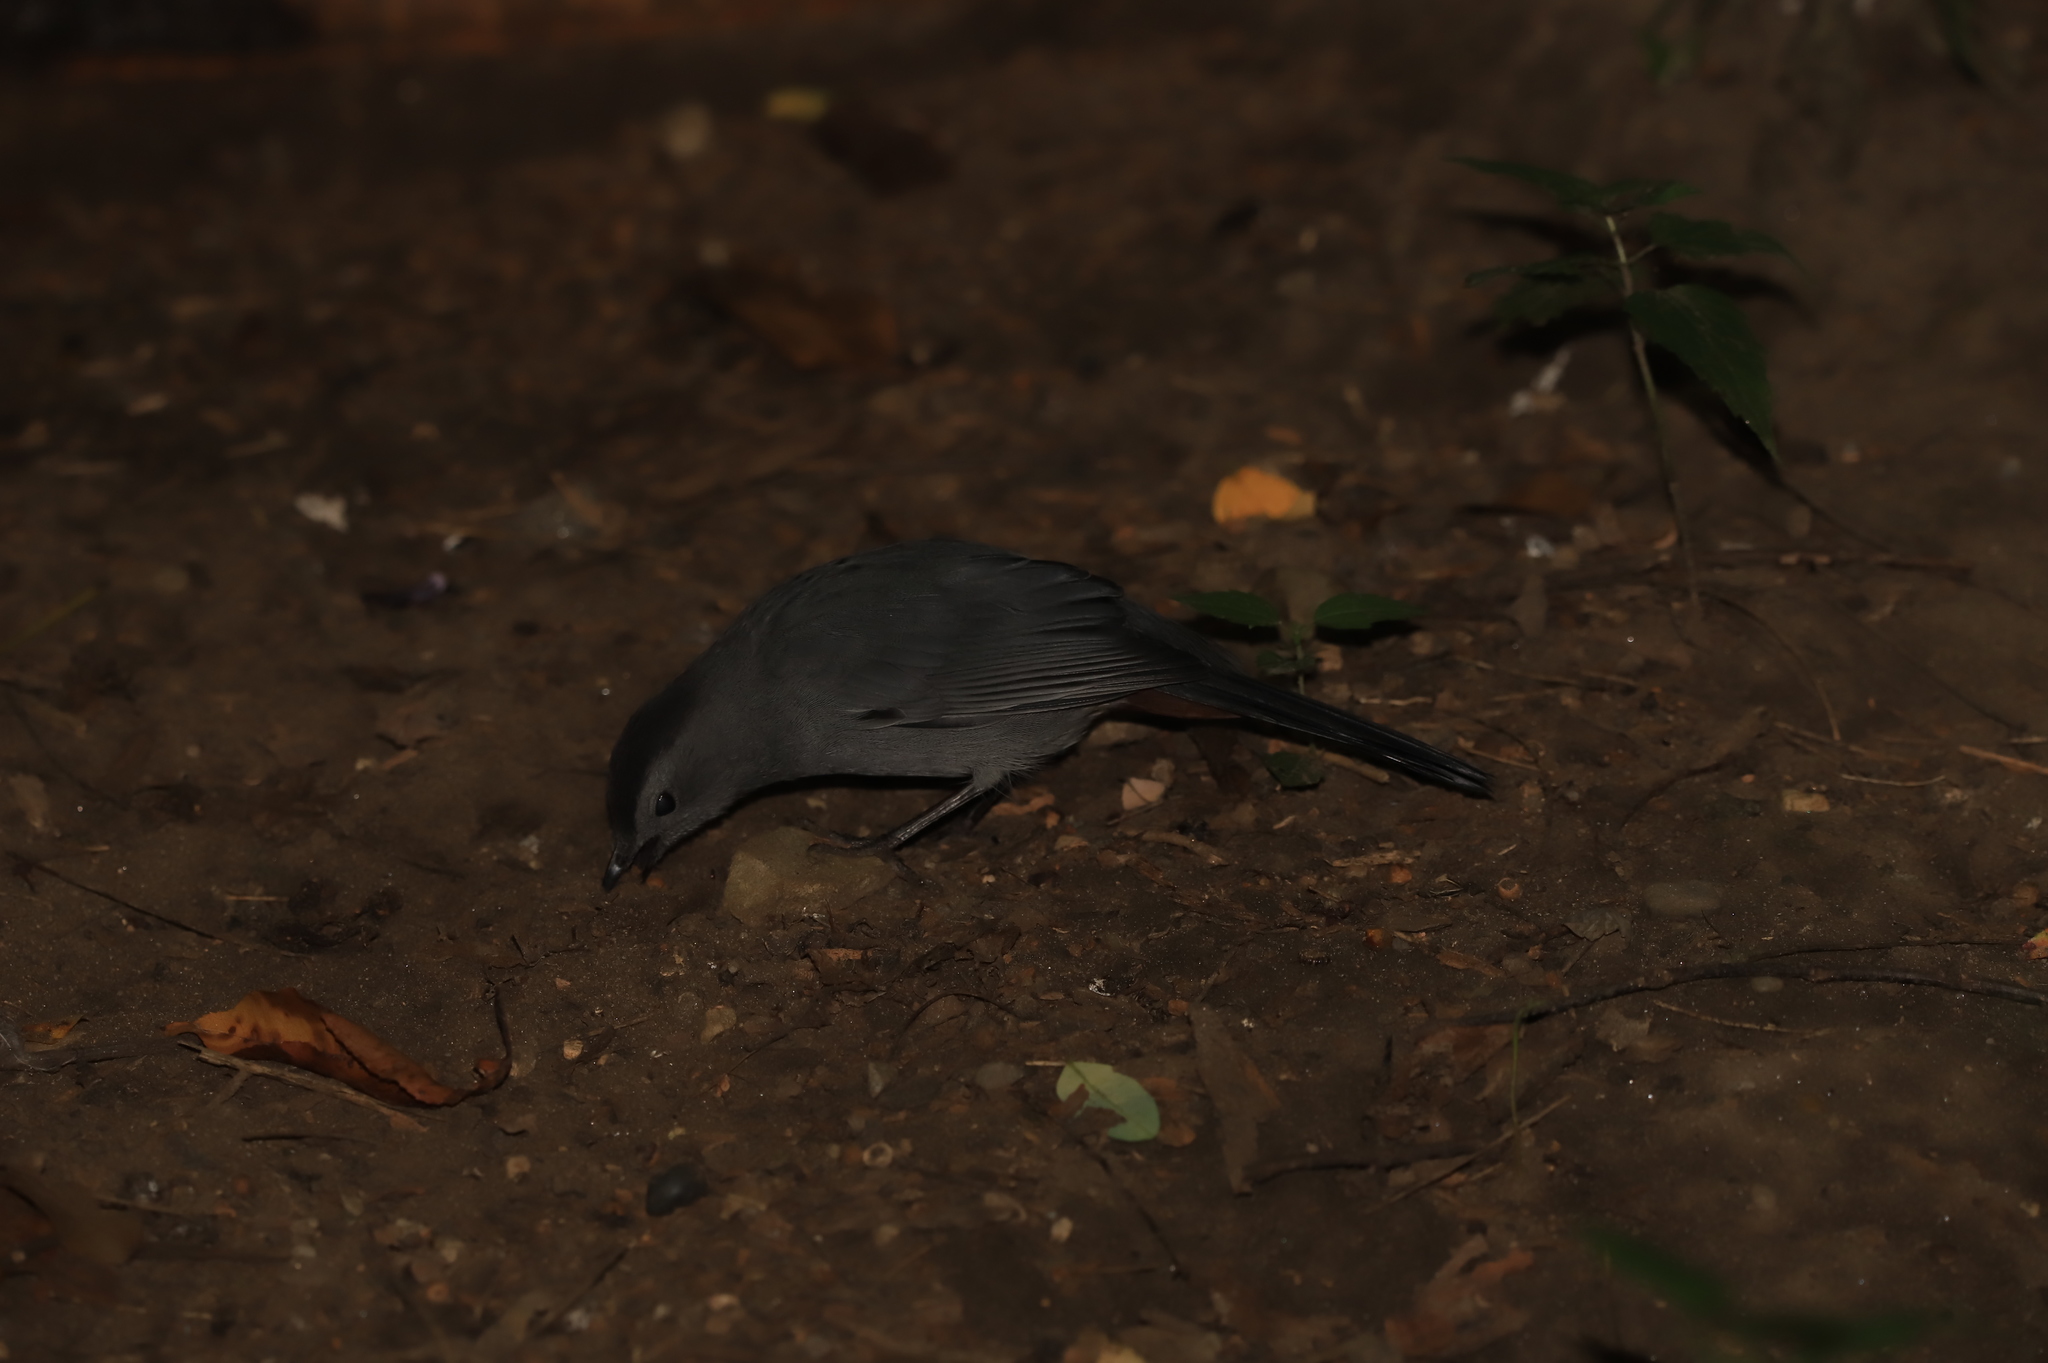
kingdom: Animalia
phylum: Chordata
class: Aves
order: Passeriformes
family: Mimidae
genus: Dumetella
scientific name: Dumetella carolinensis
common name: Gray catbird
